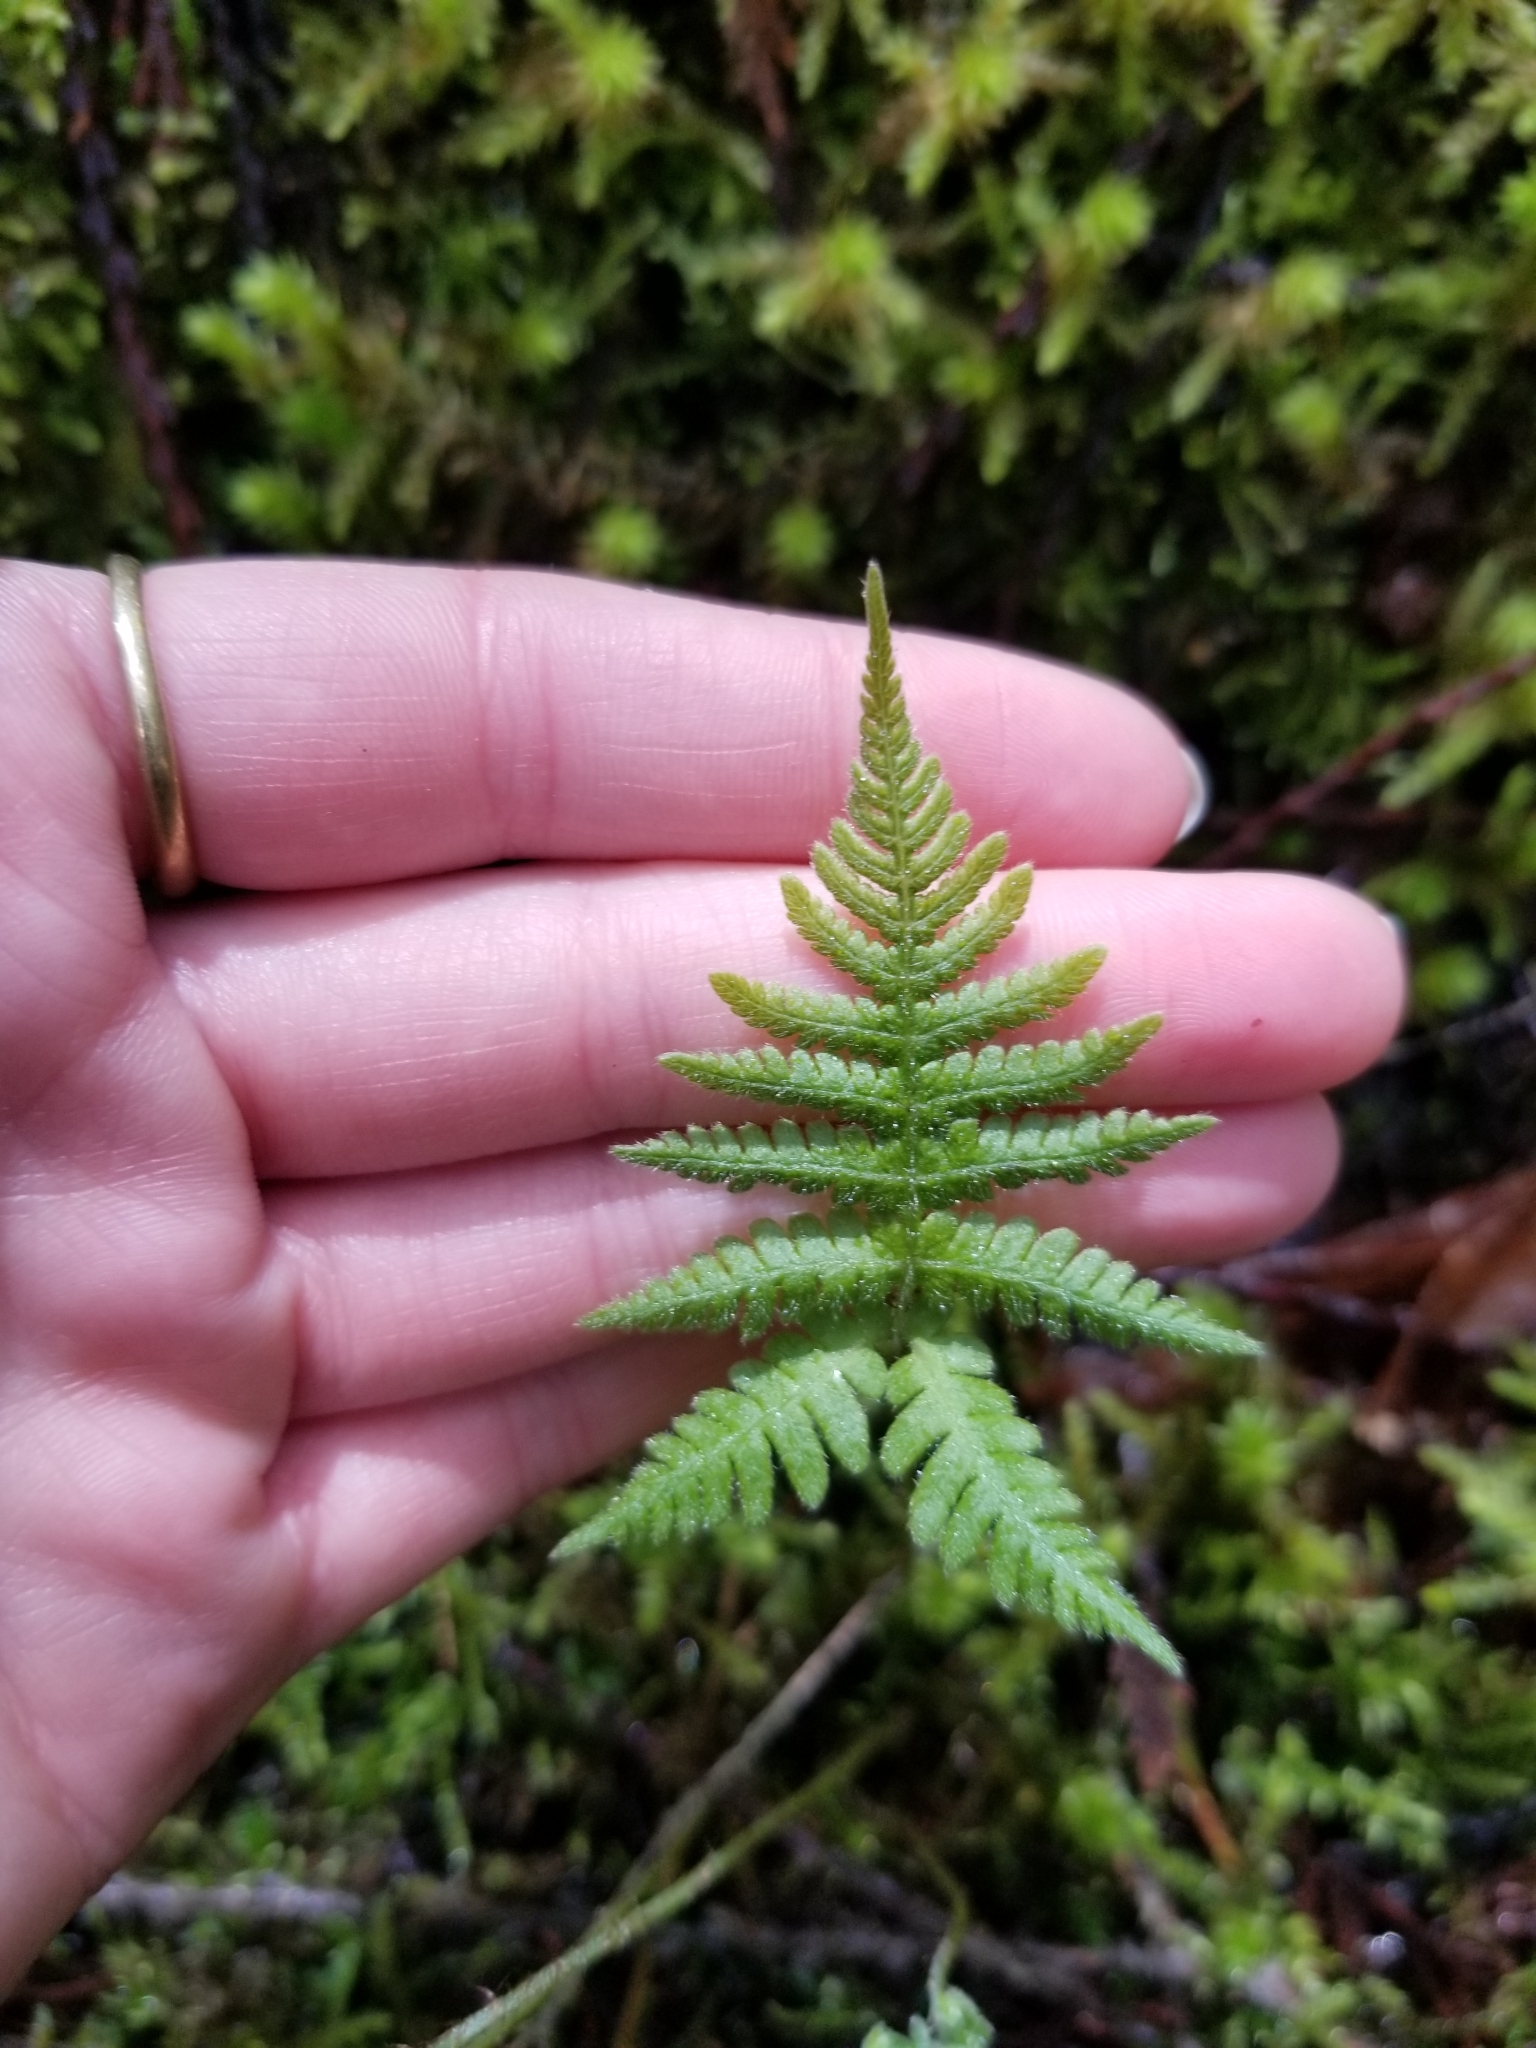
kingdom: Plantae
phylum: Tracheophyta
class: Polypodiopsida
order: Polypodiales
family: Thelypteridaceae
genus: Phegopteris
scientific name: Phegopteris connectilis
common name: Beech fern
